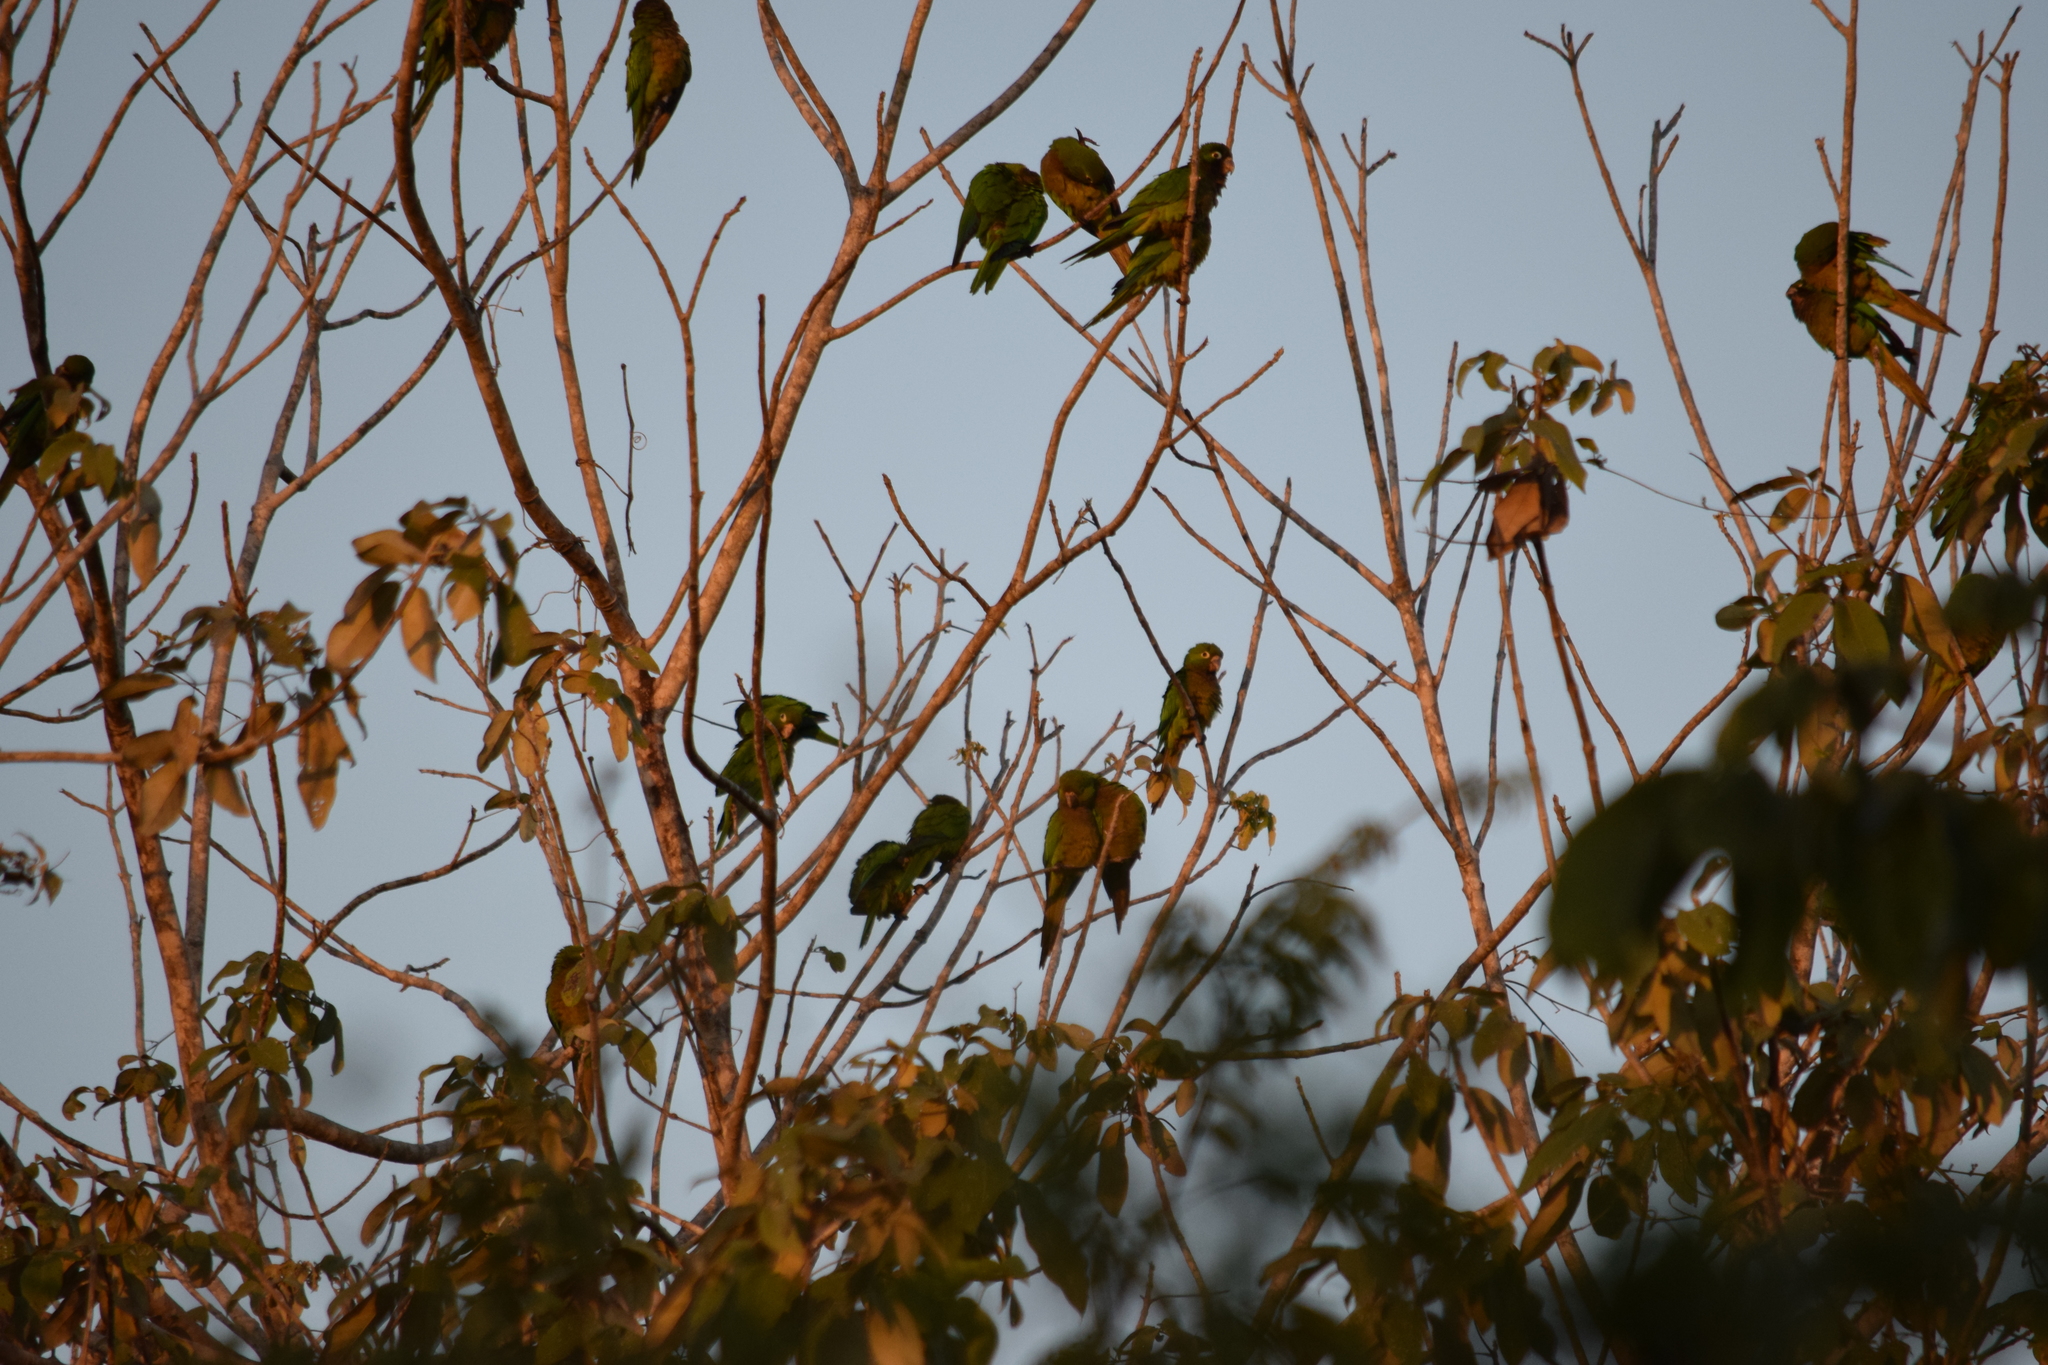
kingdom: Animalia
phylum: Chordata
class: Aves
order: Psittaciformes
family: Psittacidae
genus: Aratinga
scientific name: Aratinga nana
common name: Olive-throated parakeet
